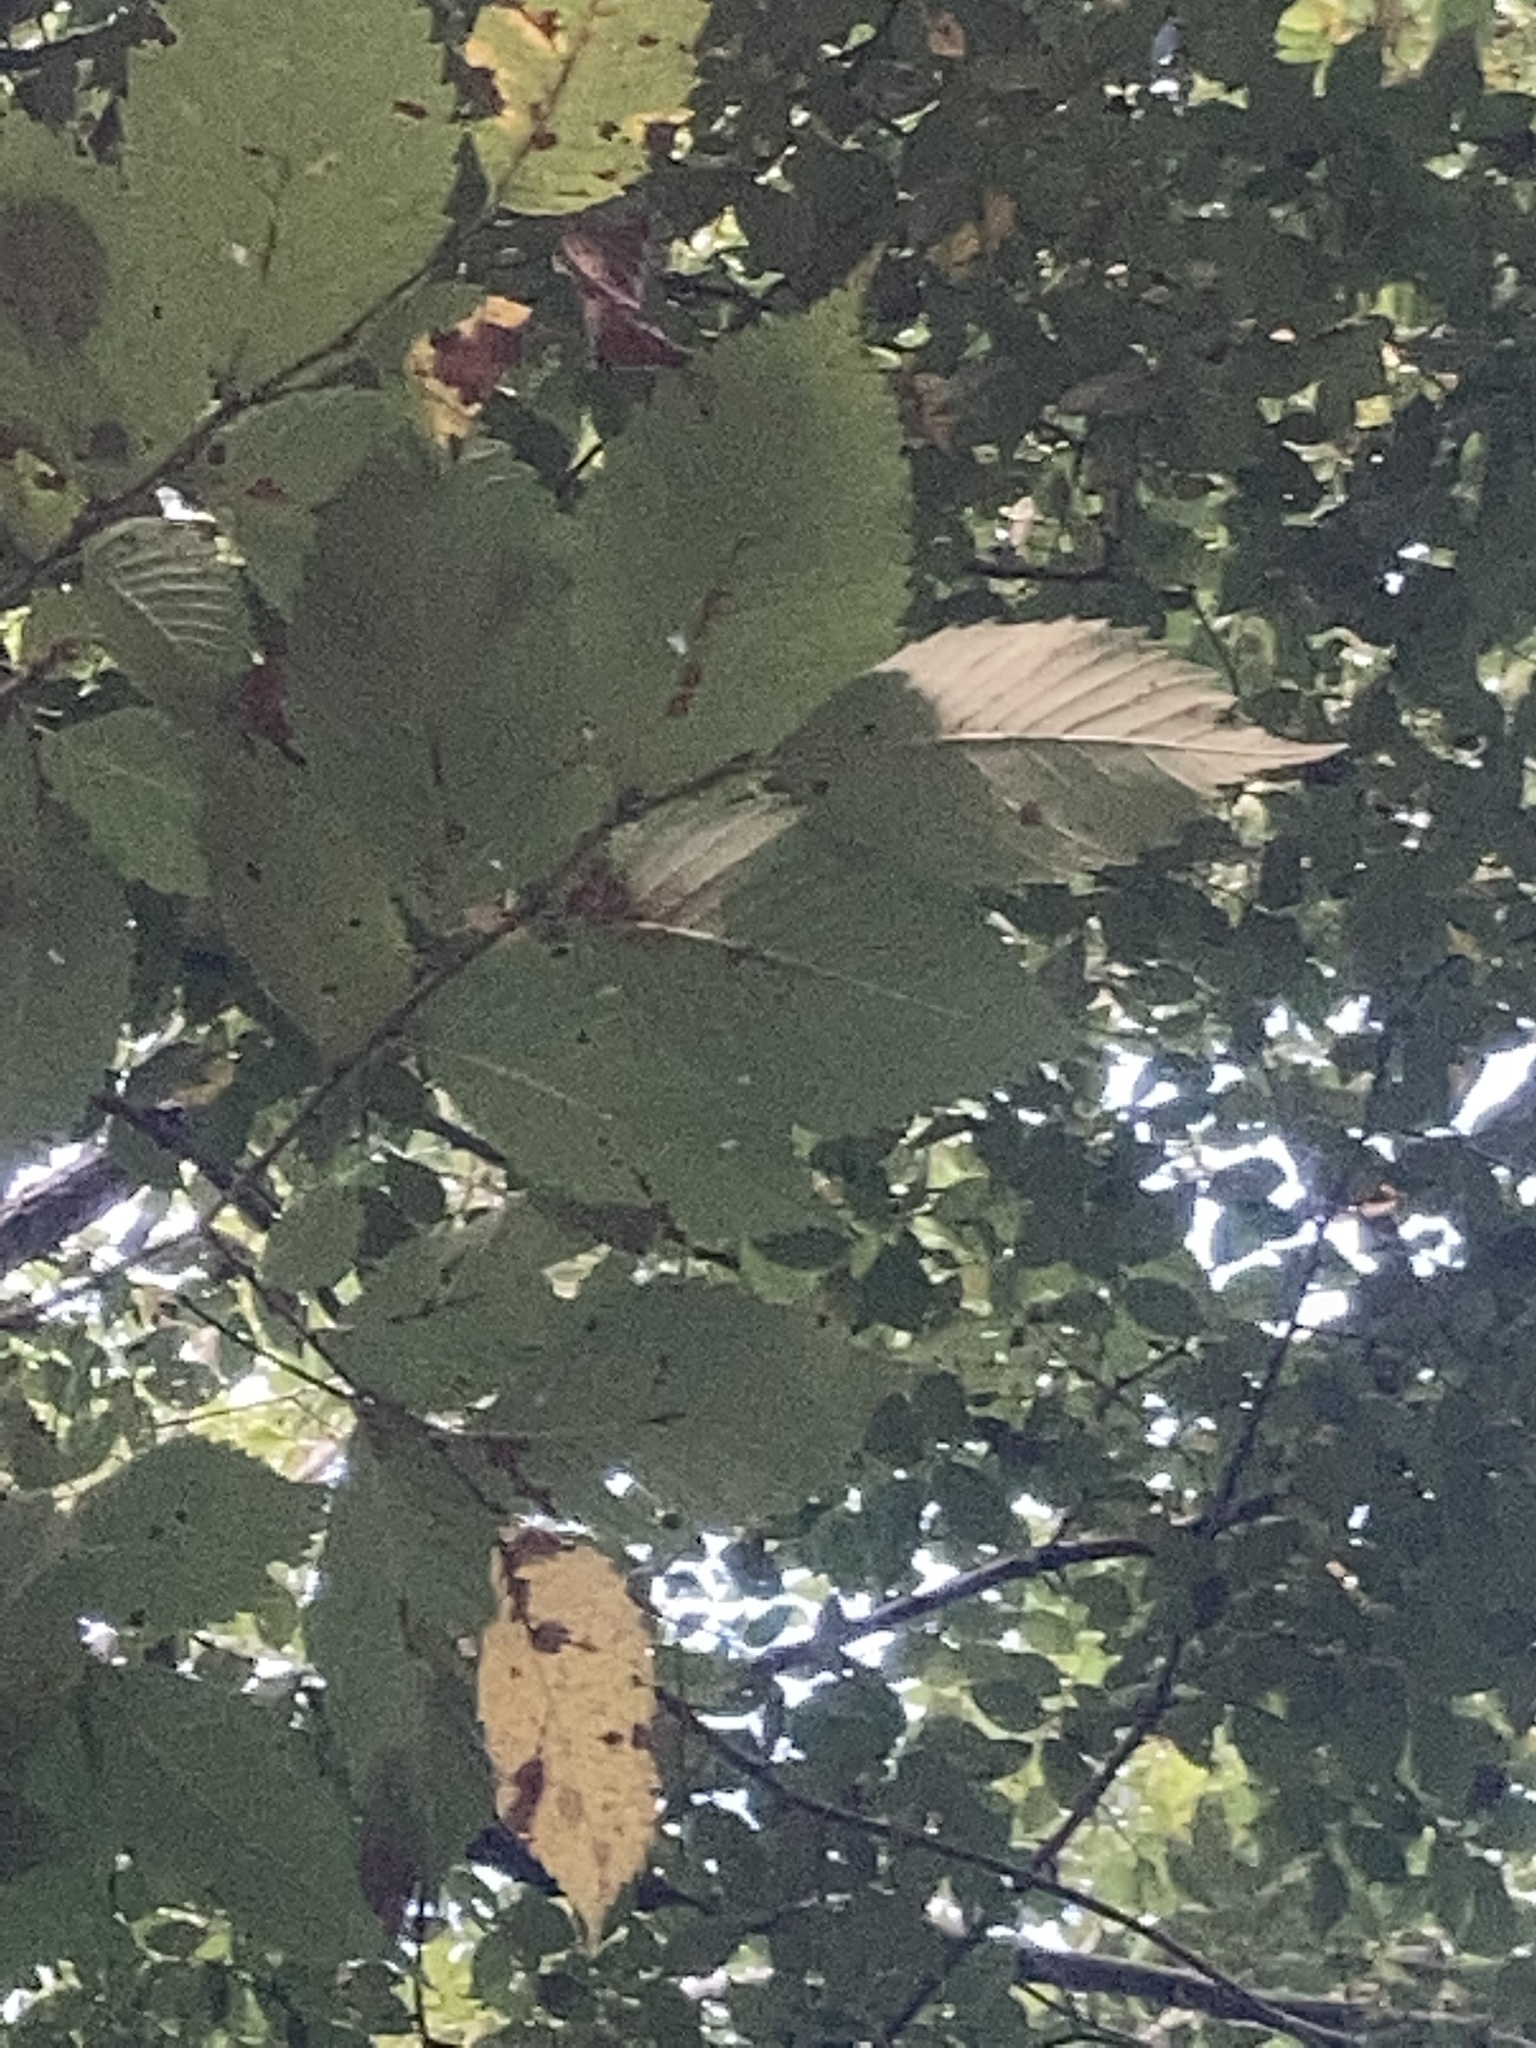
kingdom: Plantae
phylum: Tracheophyta
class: Magnoliopsida
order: Rosales
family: Ulmaceae
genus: Ulmus
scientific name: Ulmus americana
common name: American elm
